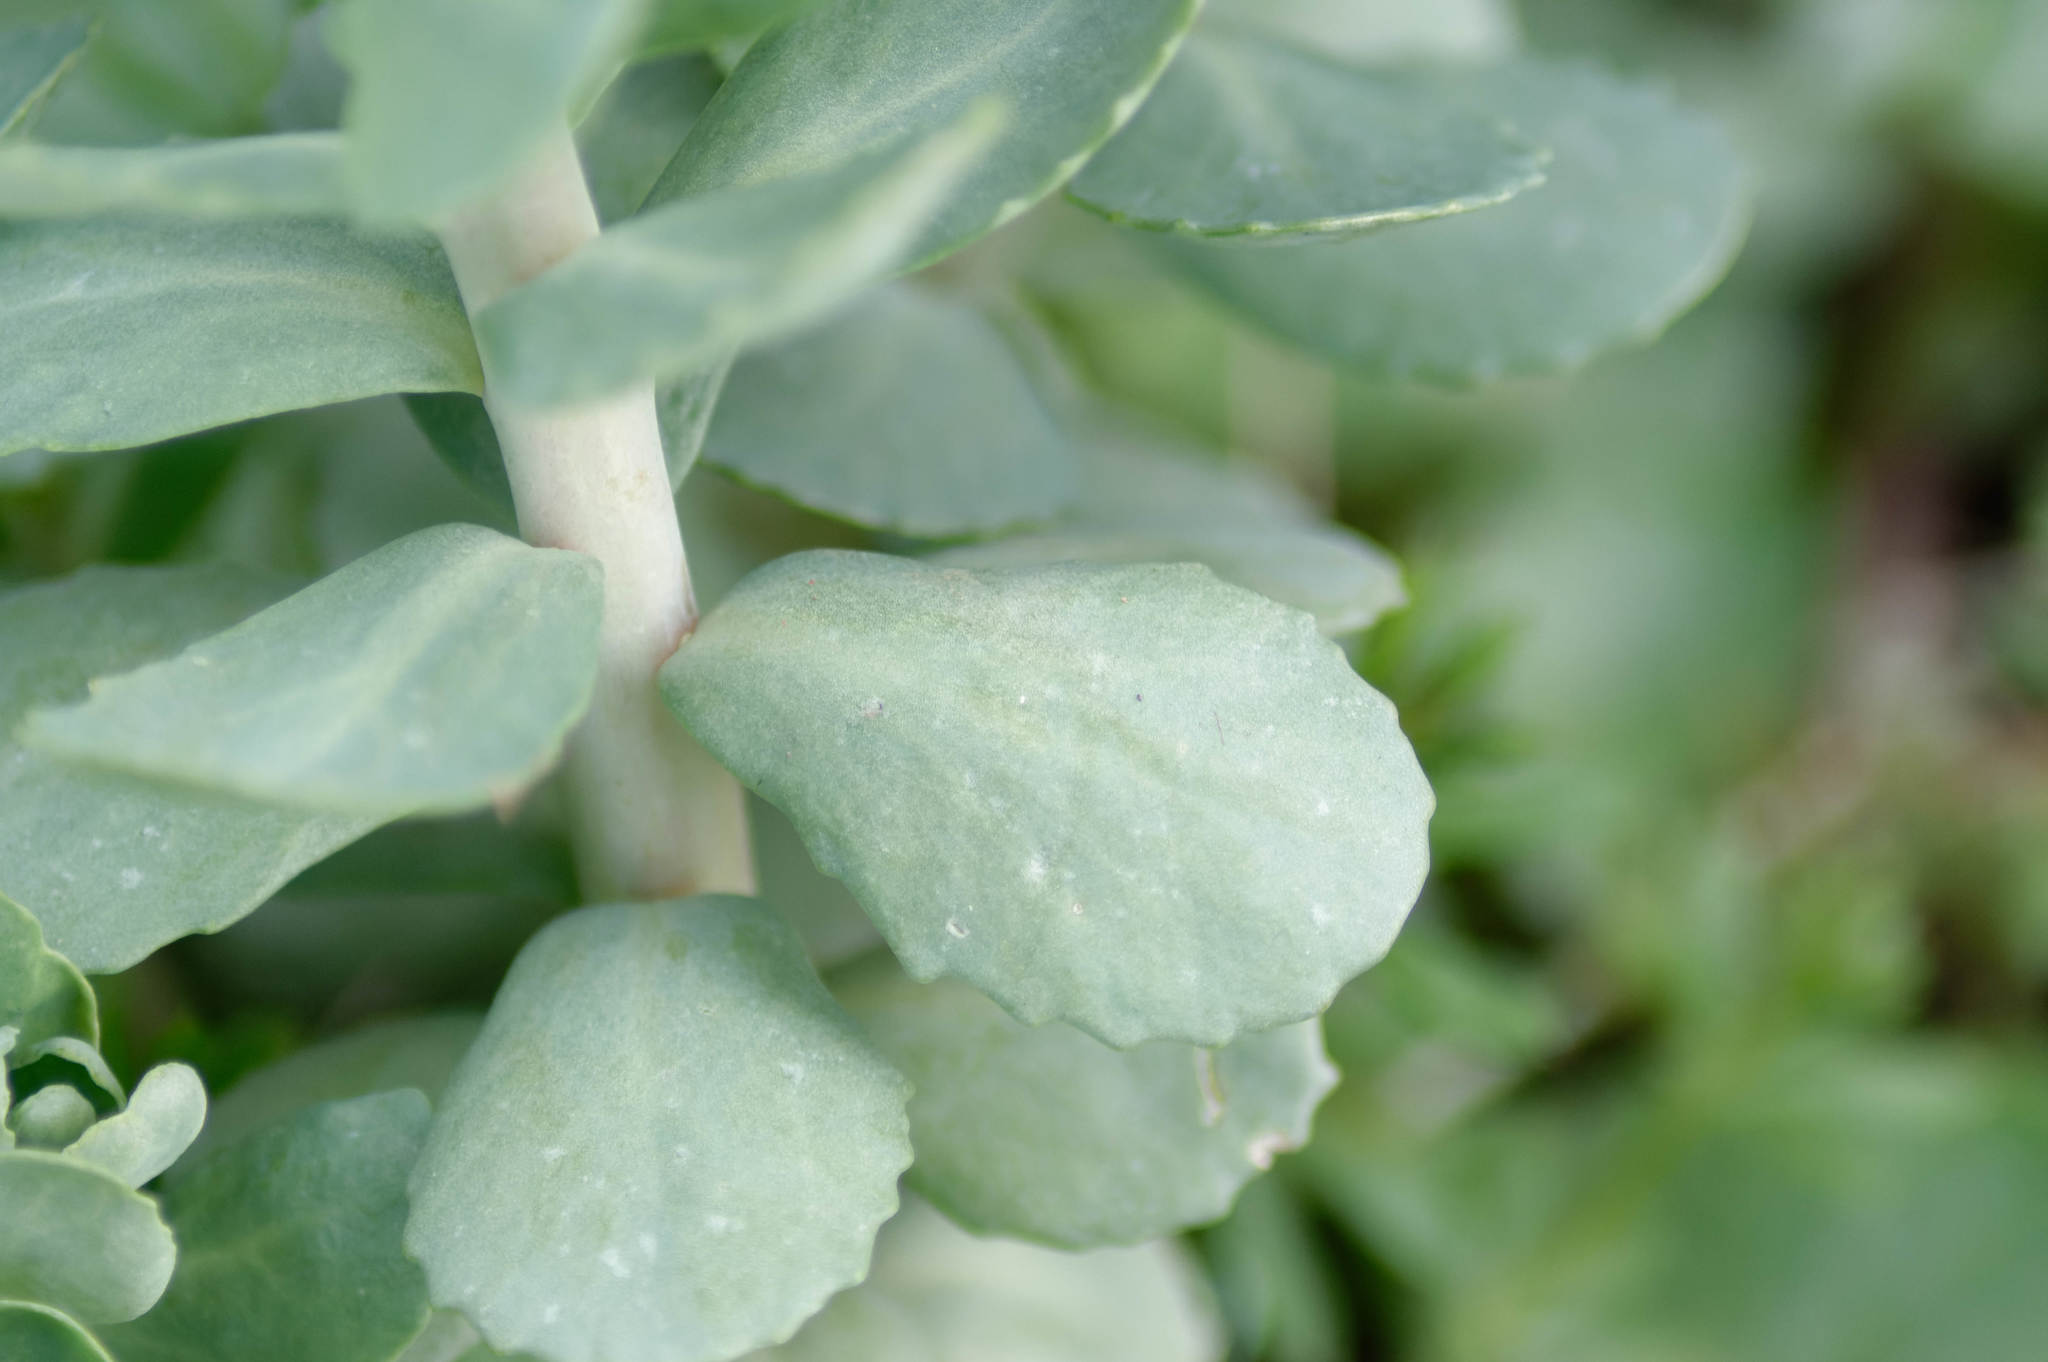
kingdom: Plantae
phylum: Tracheophyta
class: Magnoliopsida
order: Saxifragales
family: Crassulaceae
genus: Hylotelephium
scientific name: Hylotelephium telephium
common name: Live-forever
